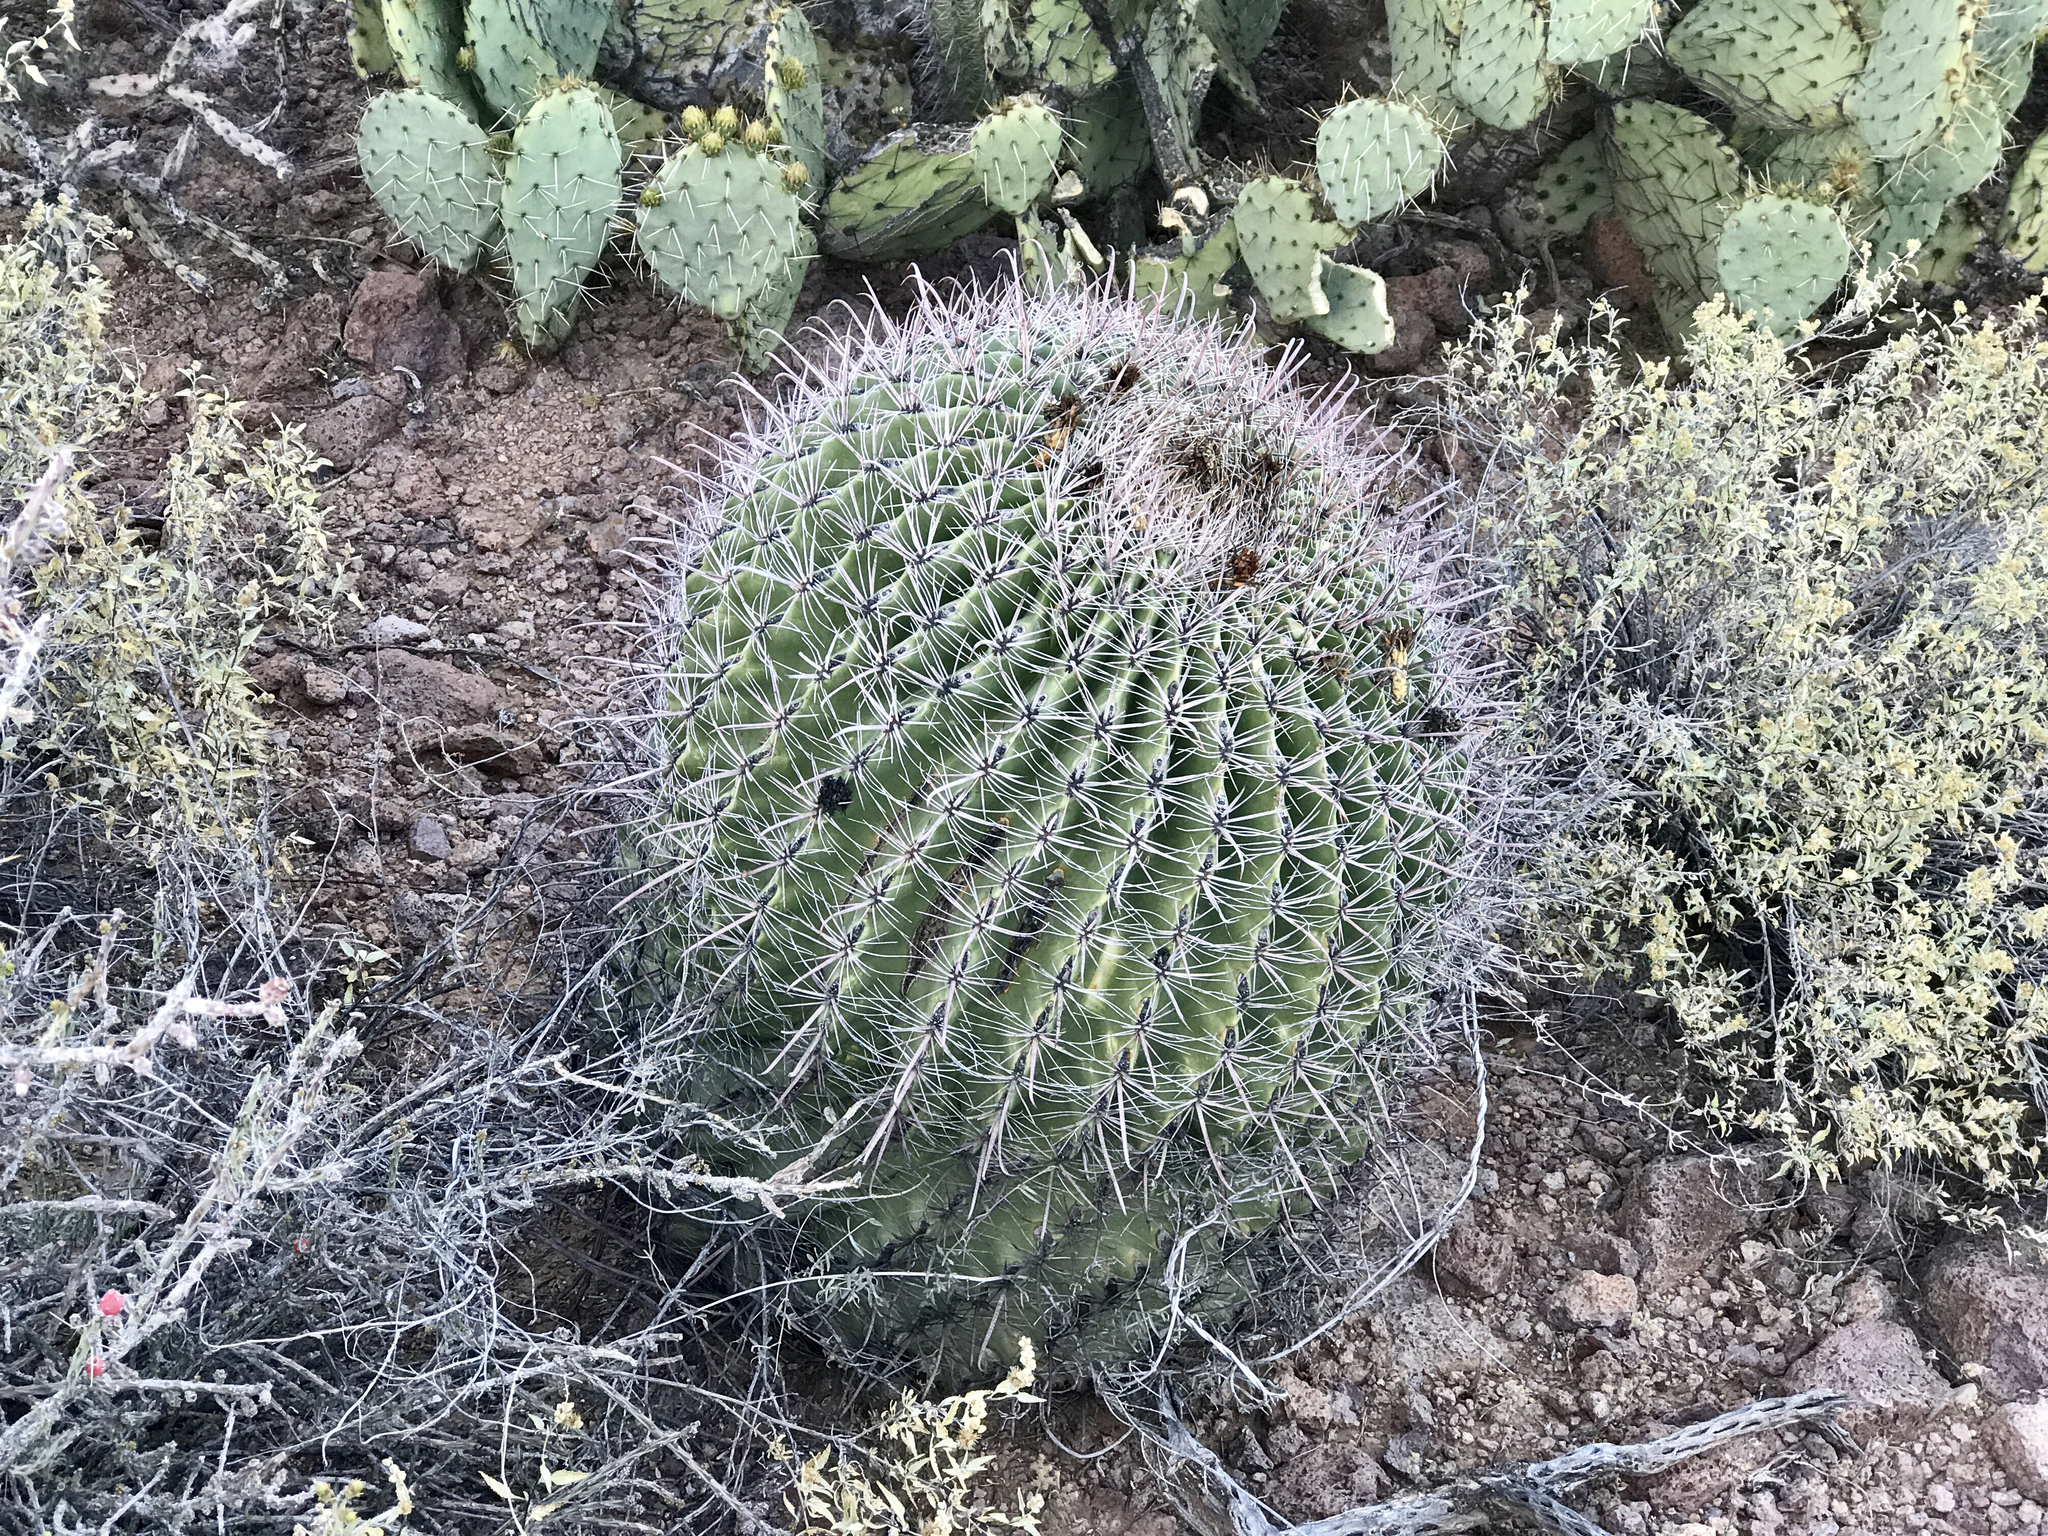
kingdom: Plantae
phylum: Tracheophyta
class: Magnoliopsida
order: Caryophyllales
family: Cactaceae
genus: Ferocactus
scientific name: Ferocactus wislizeni
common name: Candy barrel cactus
